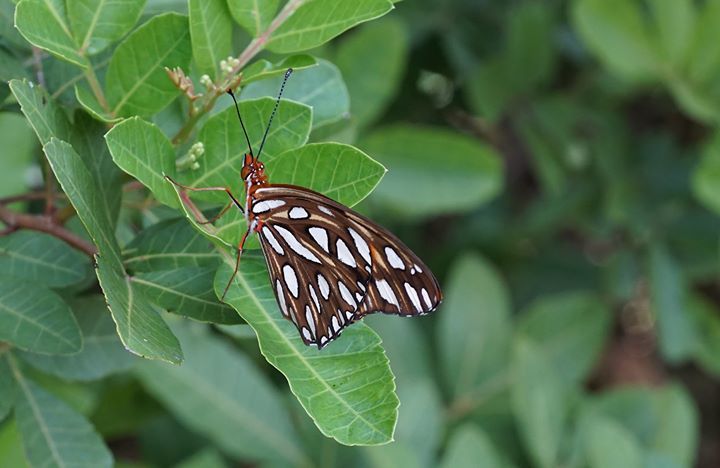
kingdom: Animalia
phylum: Arthropoda
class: Insecta
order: Lepidoptera
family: Nymphalidae
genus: Dione
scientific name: Dione vanillae
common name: Gulf fritillary
